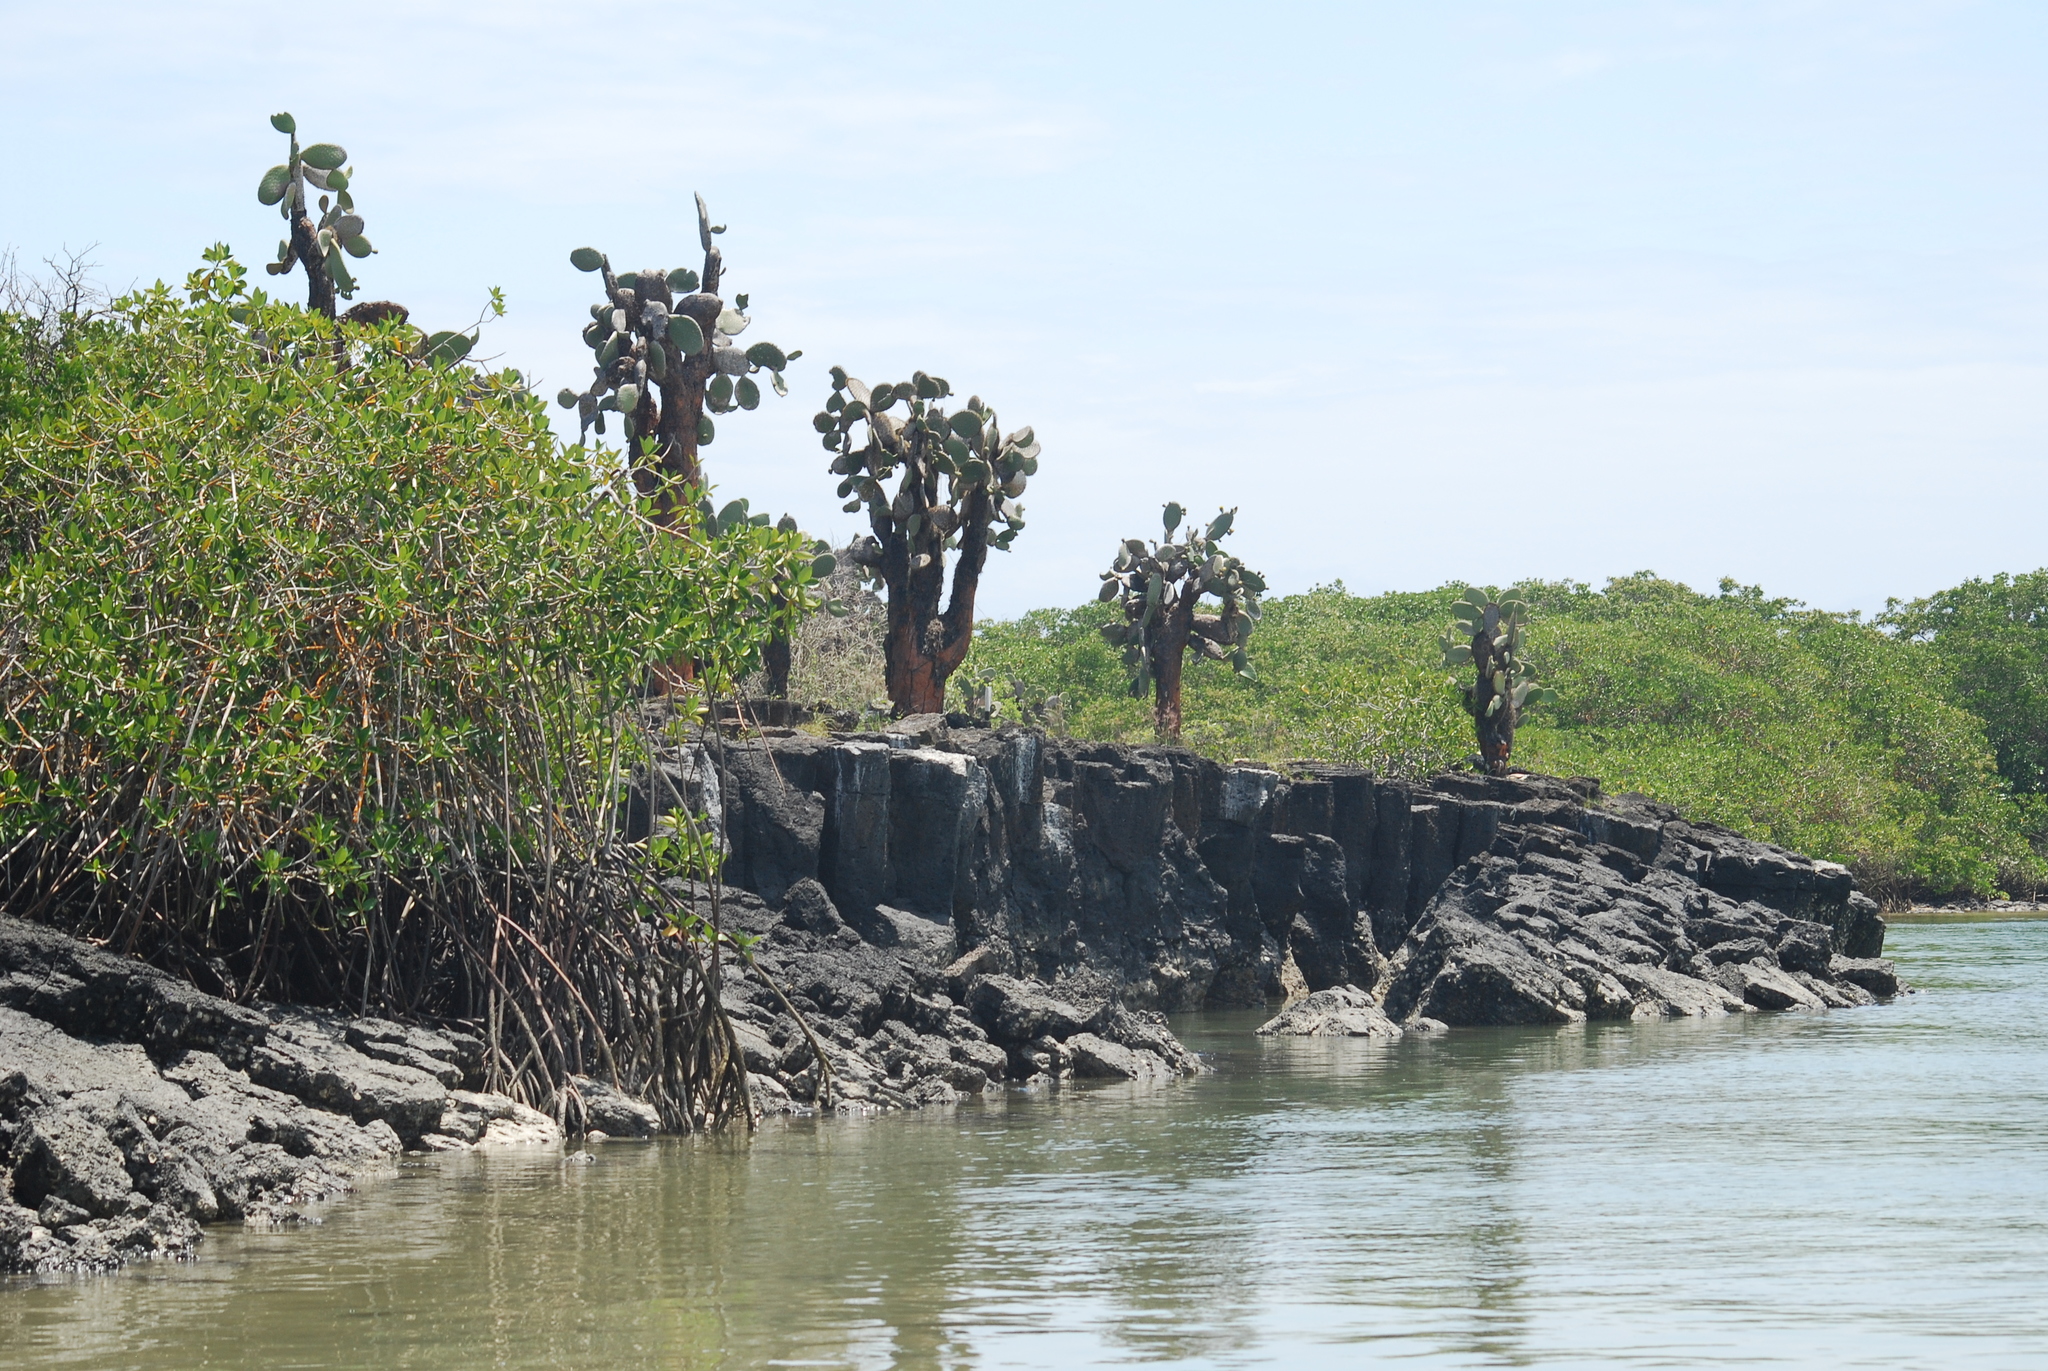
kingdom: Plantae
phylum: Tracheophyta
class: Magnoliopsida
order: Caryophyllales
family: Cactaceae
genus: Opuntia
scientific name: Opuntia galapageia
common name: Galápagos prickly pear
